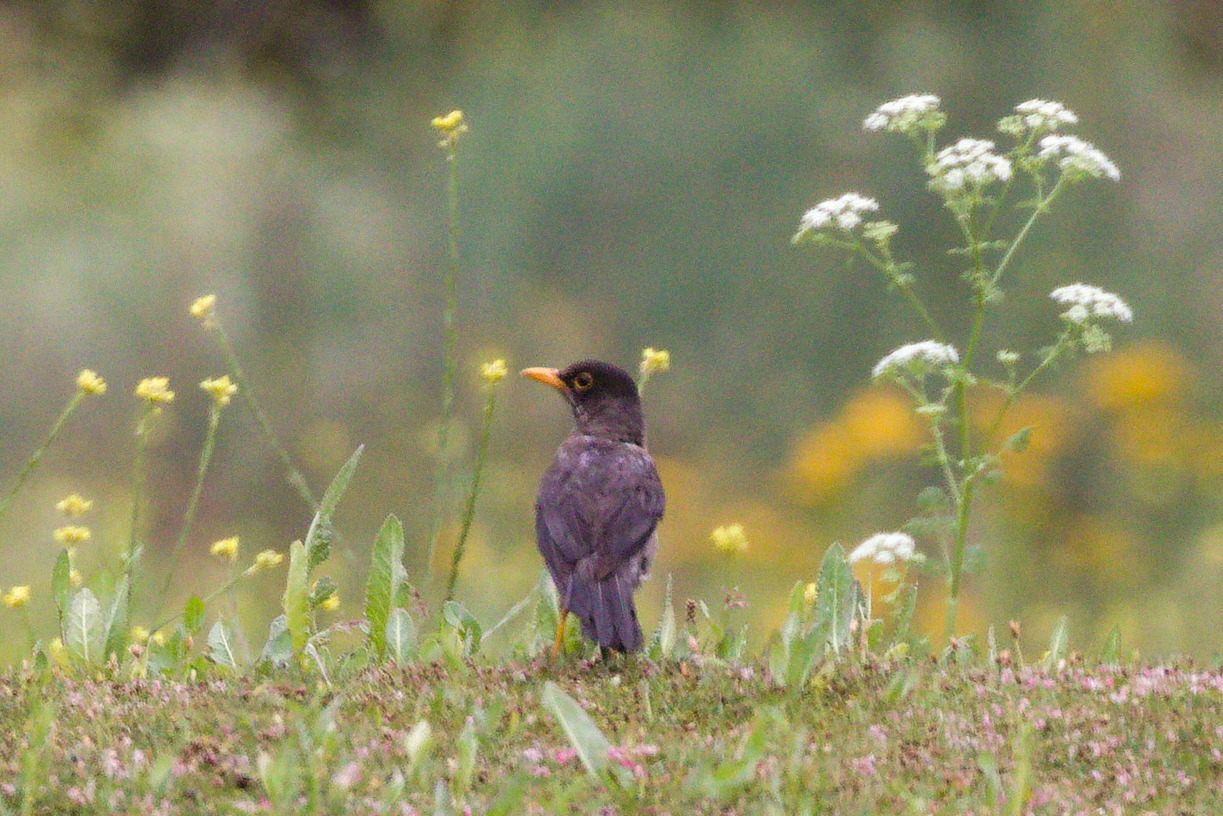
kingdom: Animalia
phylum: Chordata
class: Aves
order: Passeriformes
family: Turdidae
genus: Turdus
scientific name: Turdus falcklandii
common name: Austral thrush
